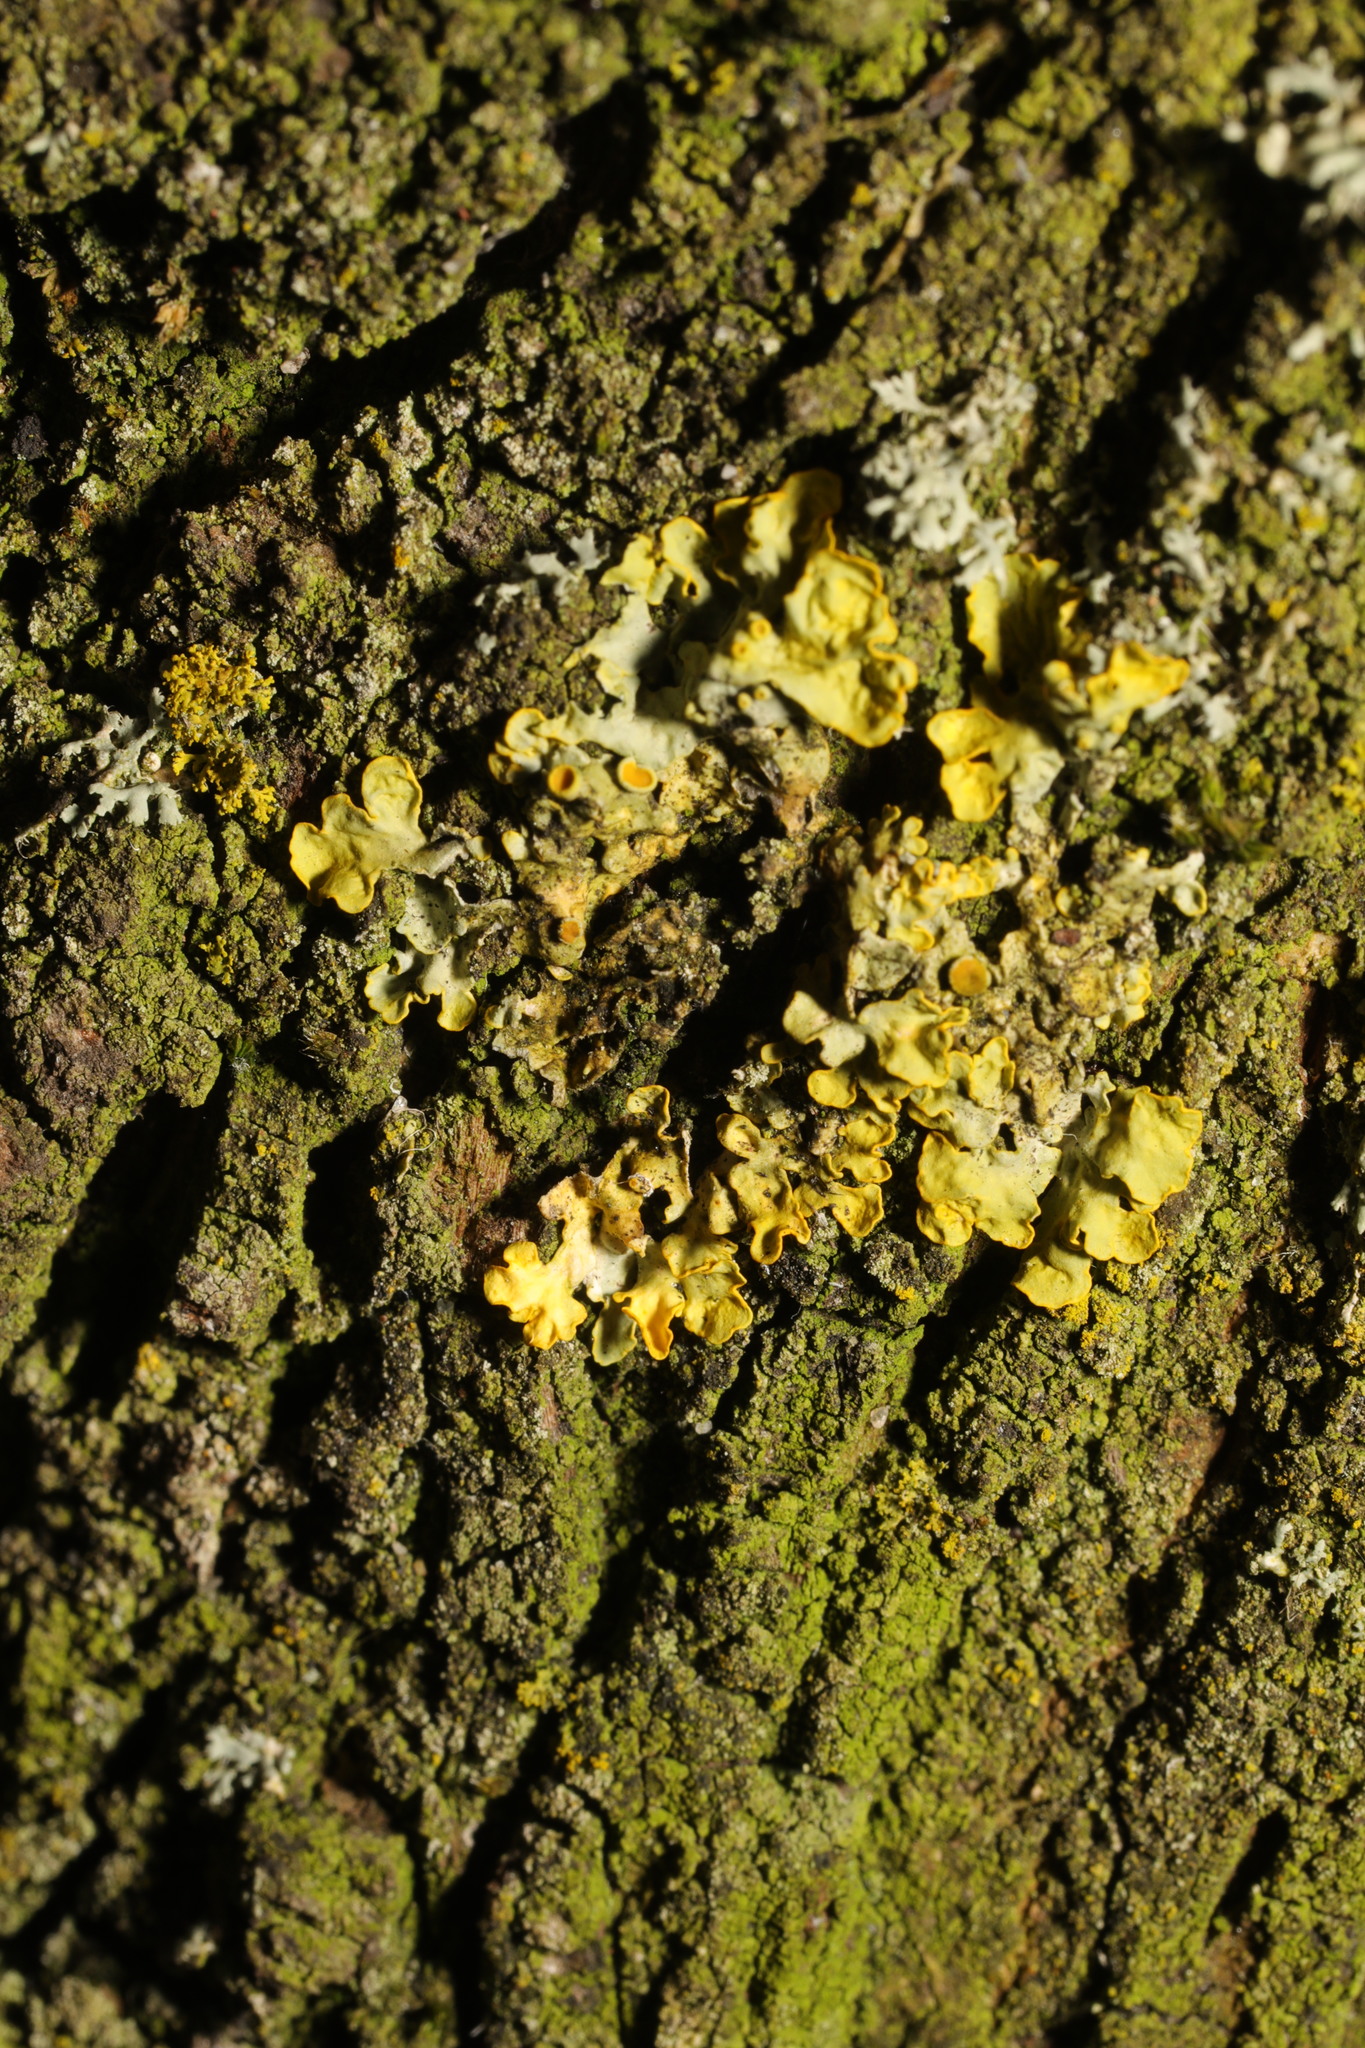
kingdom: Fungi
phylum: Ascomycota
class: Lecanoromycetes
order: Teloschistales
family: Teloschistaceae
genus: Xanthoria
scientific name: Xanthoria parietina
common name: Common orange lichen
